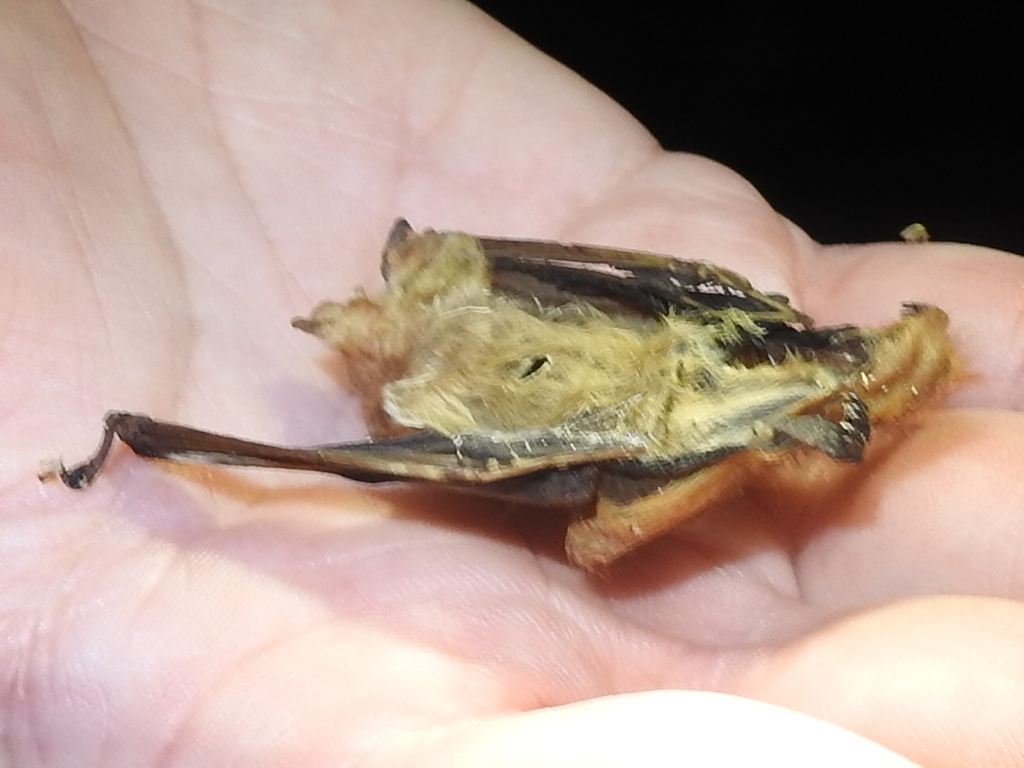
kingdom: Animalia
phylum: Chordata
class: Mammalia
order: Chiroptera
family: Vespertilionidae
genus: Lasiurus
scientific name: Lasiurus borealis
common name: Eastern red bat
